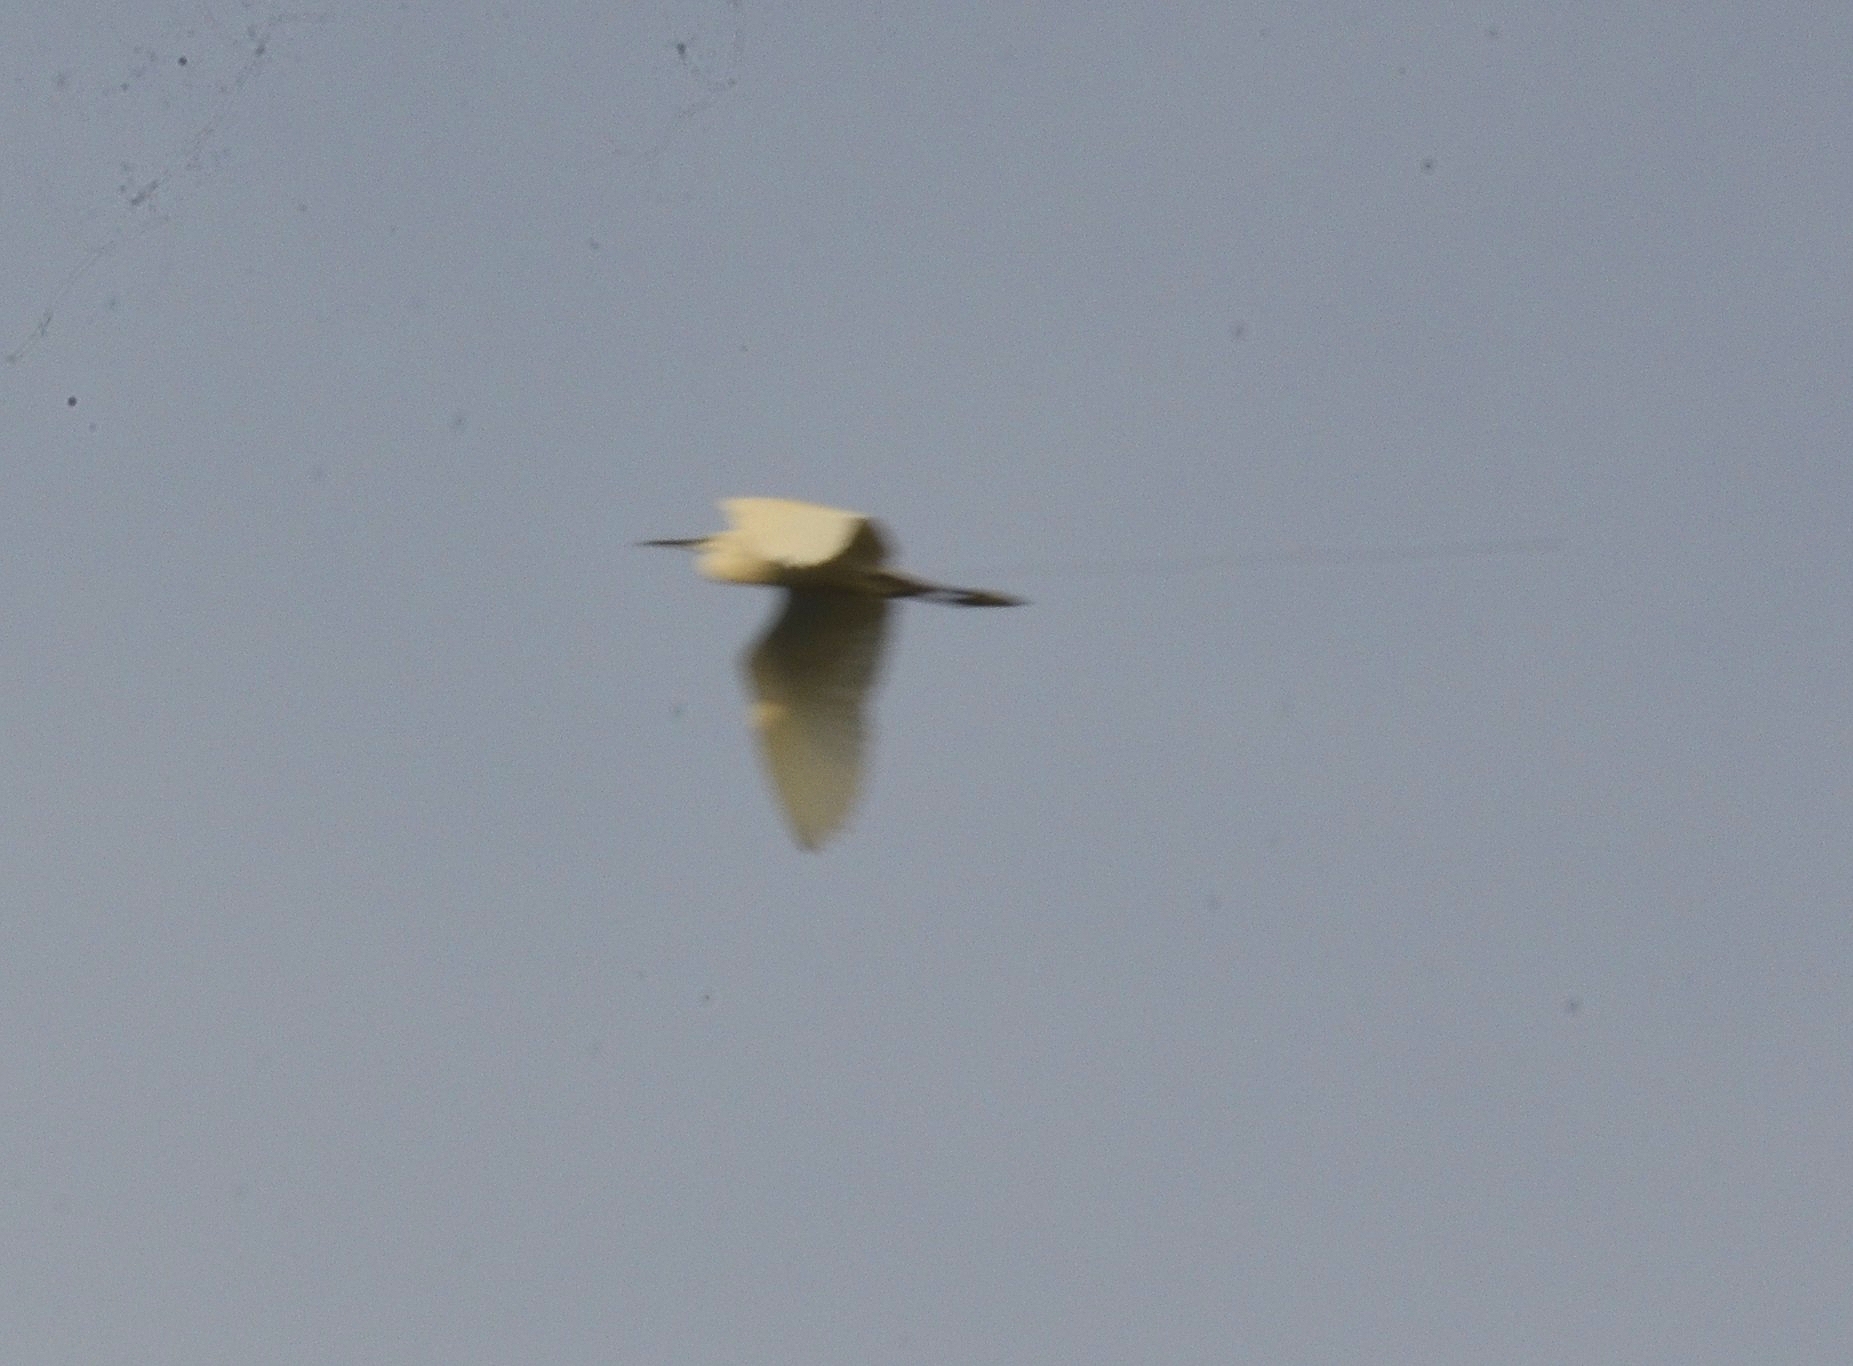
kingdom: Animalia
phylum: Chordata
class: Aves
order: Pelecaniformes
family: Ardeidae
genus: Egretta
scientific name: Egretta garzetta
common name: Little egret
